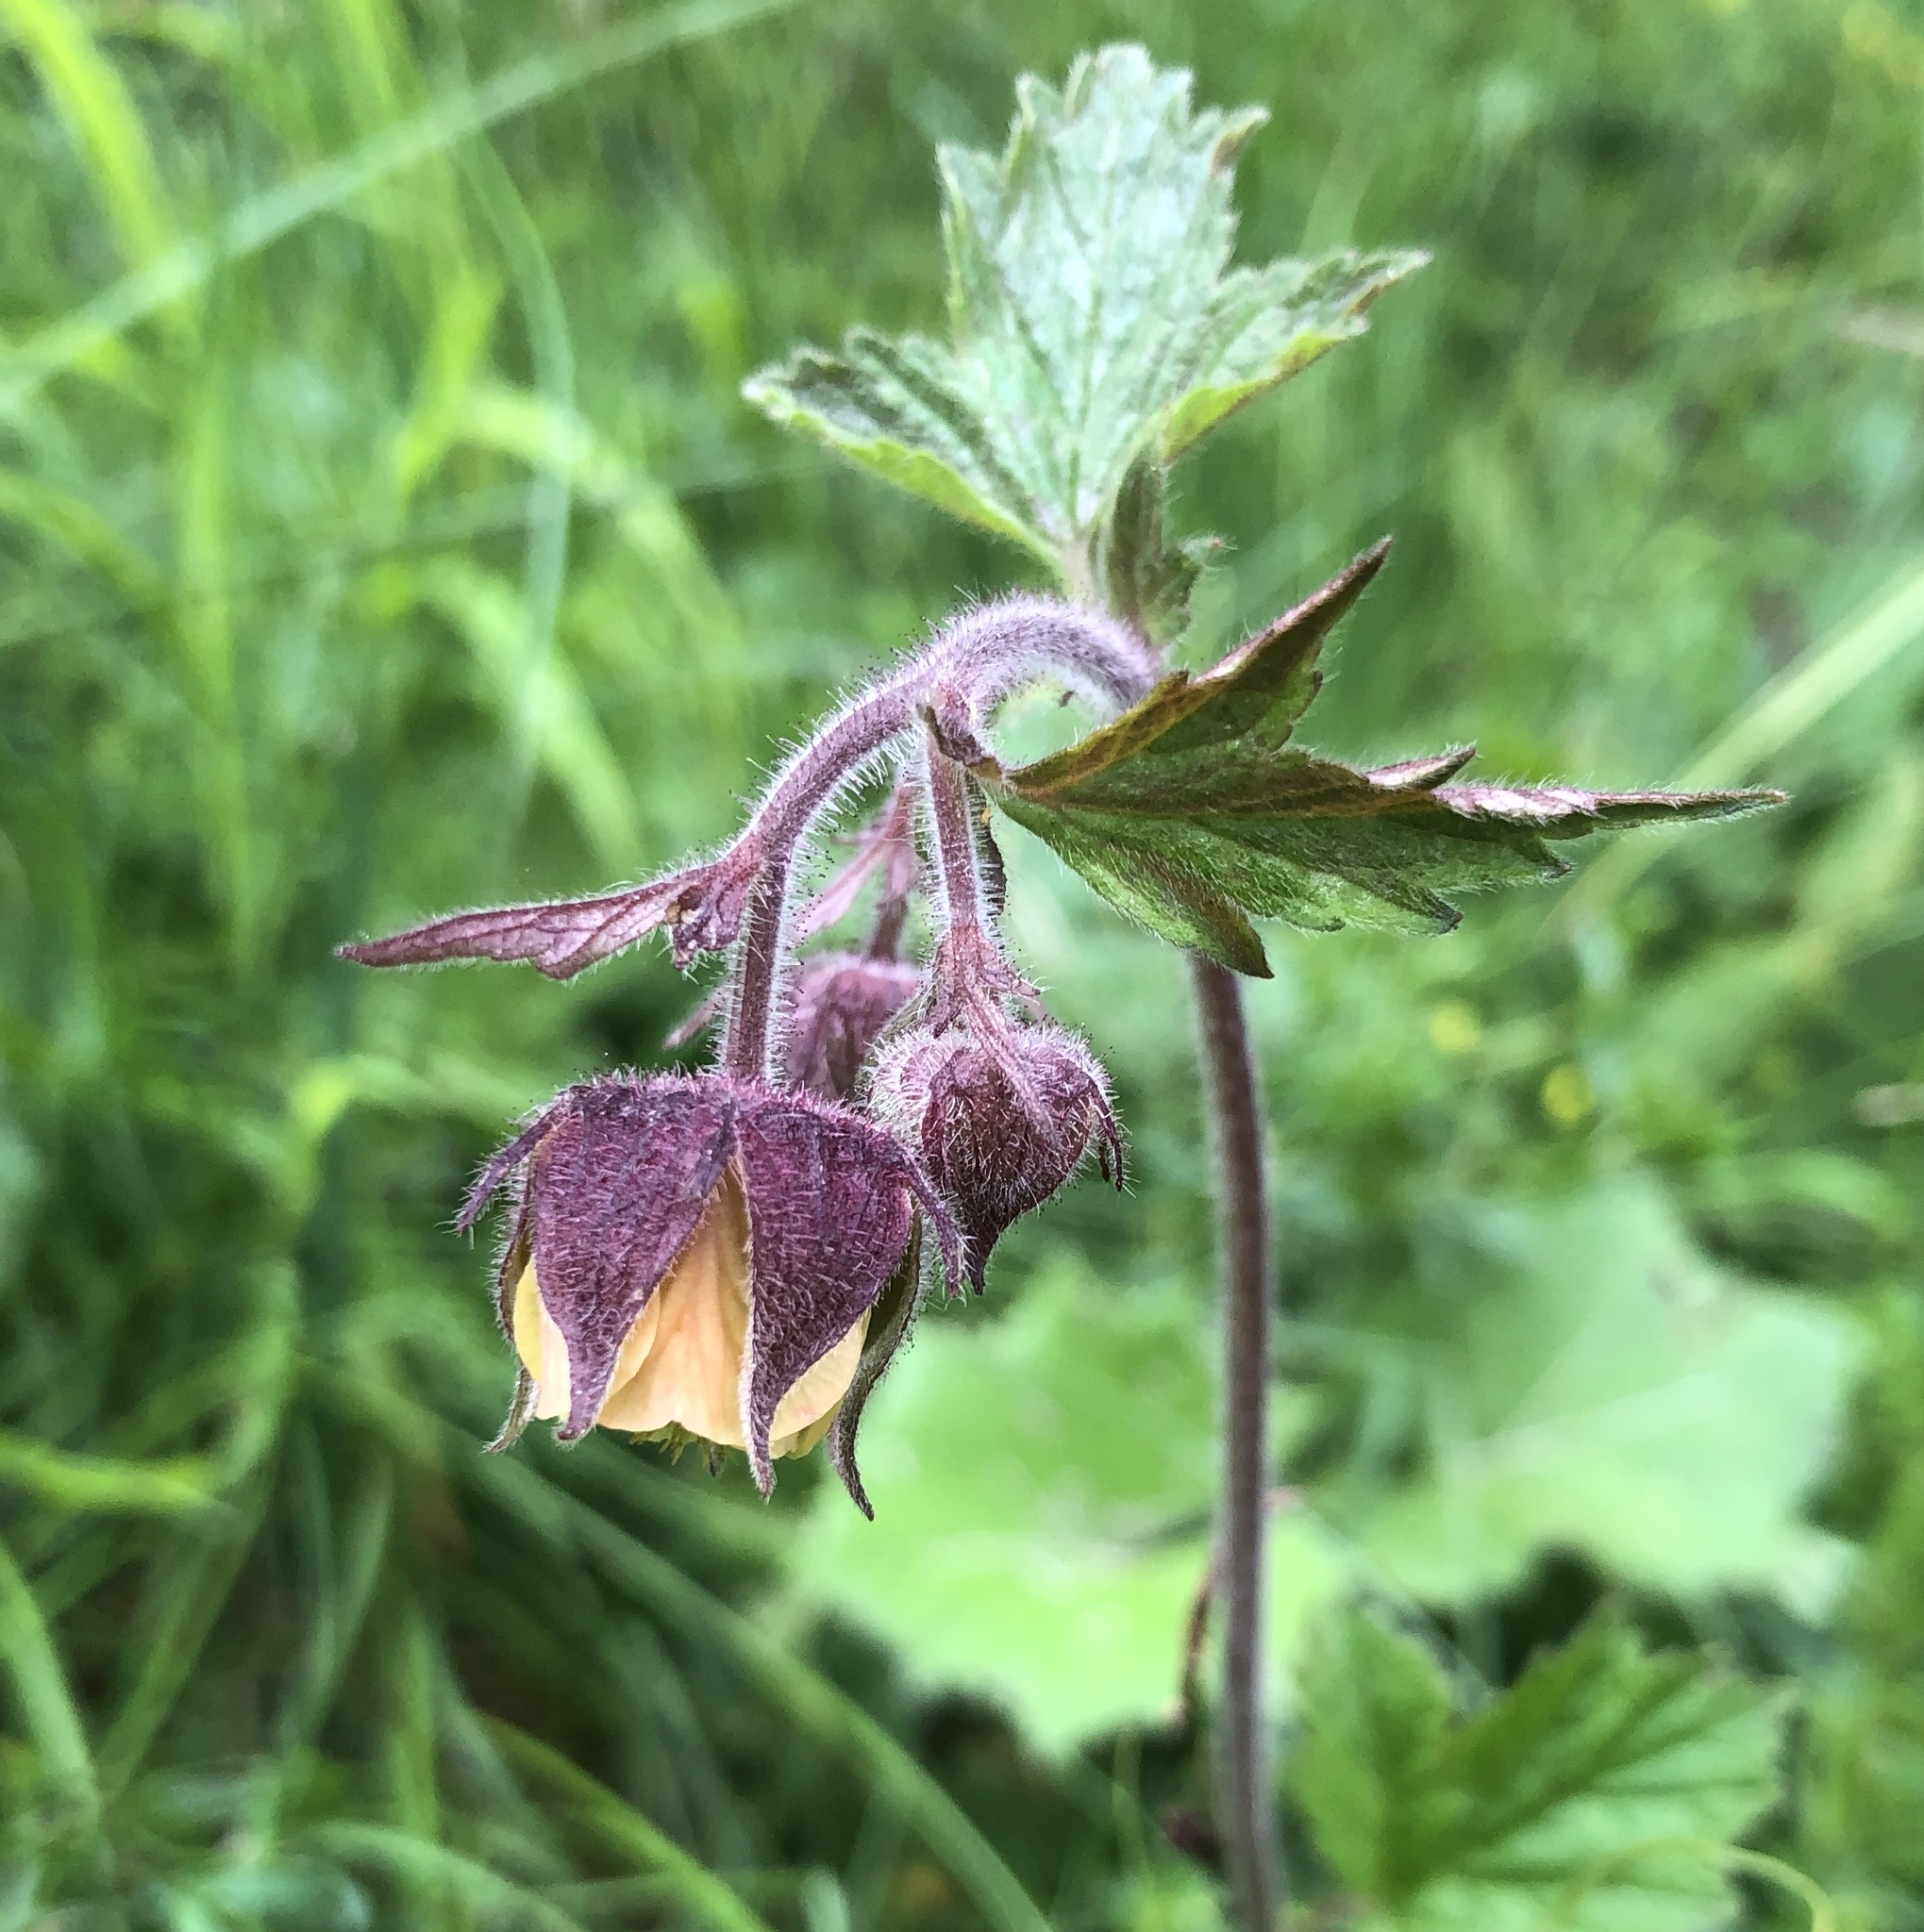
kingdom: Plantae
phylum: Tracheophyta
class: Magnoliopsida
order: Rosales
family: Rosaceae
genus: Geum
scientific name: Geum rivale
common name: Water avens
